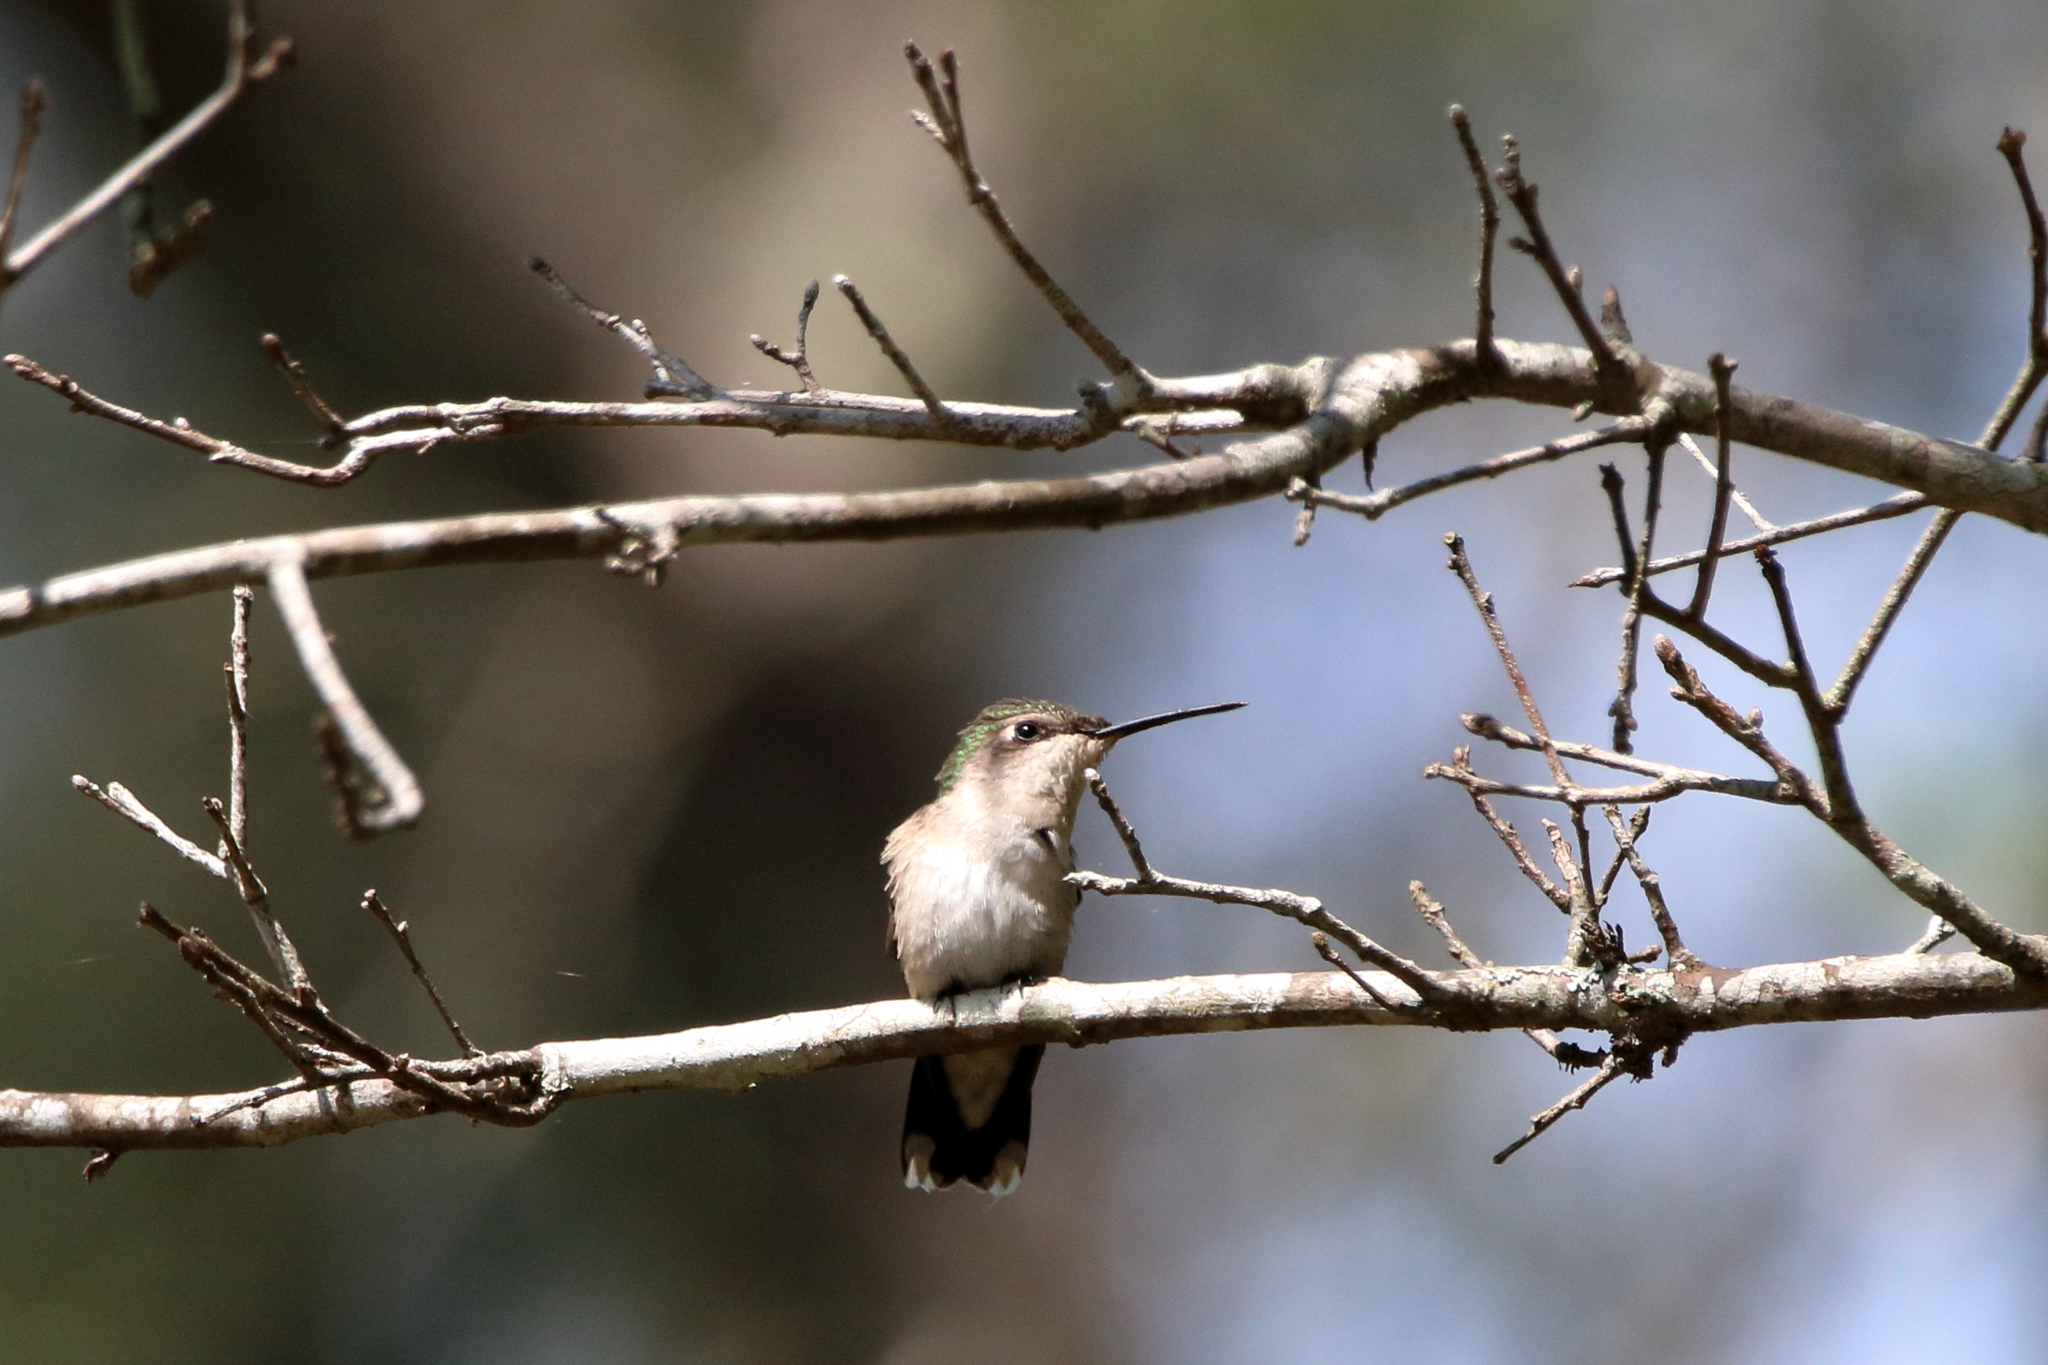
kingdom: Animalia
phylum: Chordata
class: Aves
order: Apodiformes
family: Trochilidae
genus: Archilochus
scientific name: Archilochus colubris
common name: Ruby-throated hummingbird
